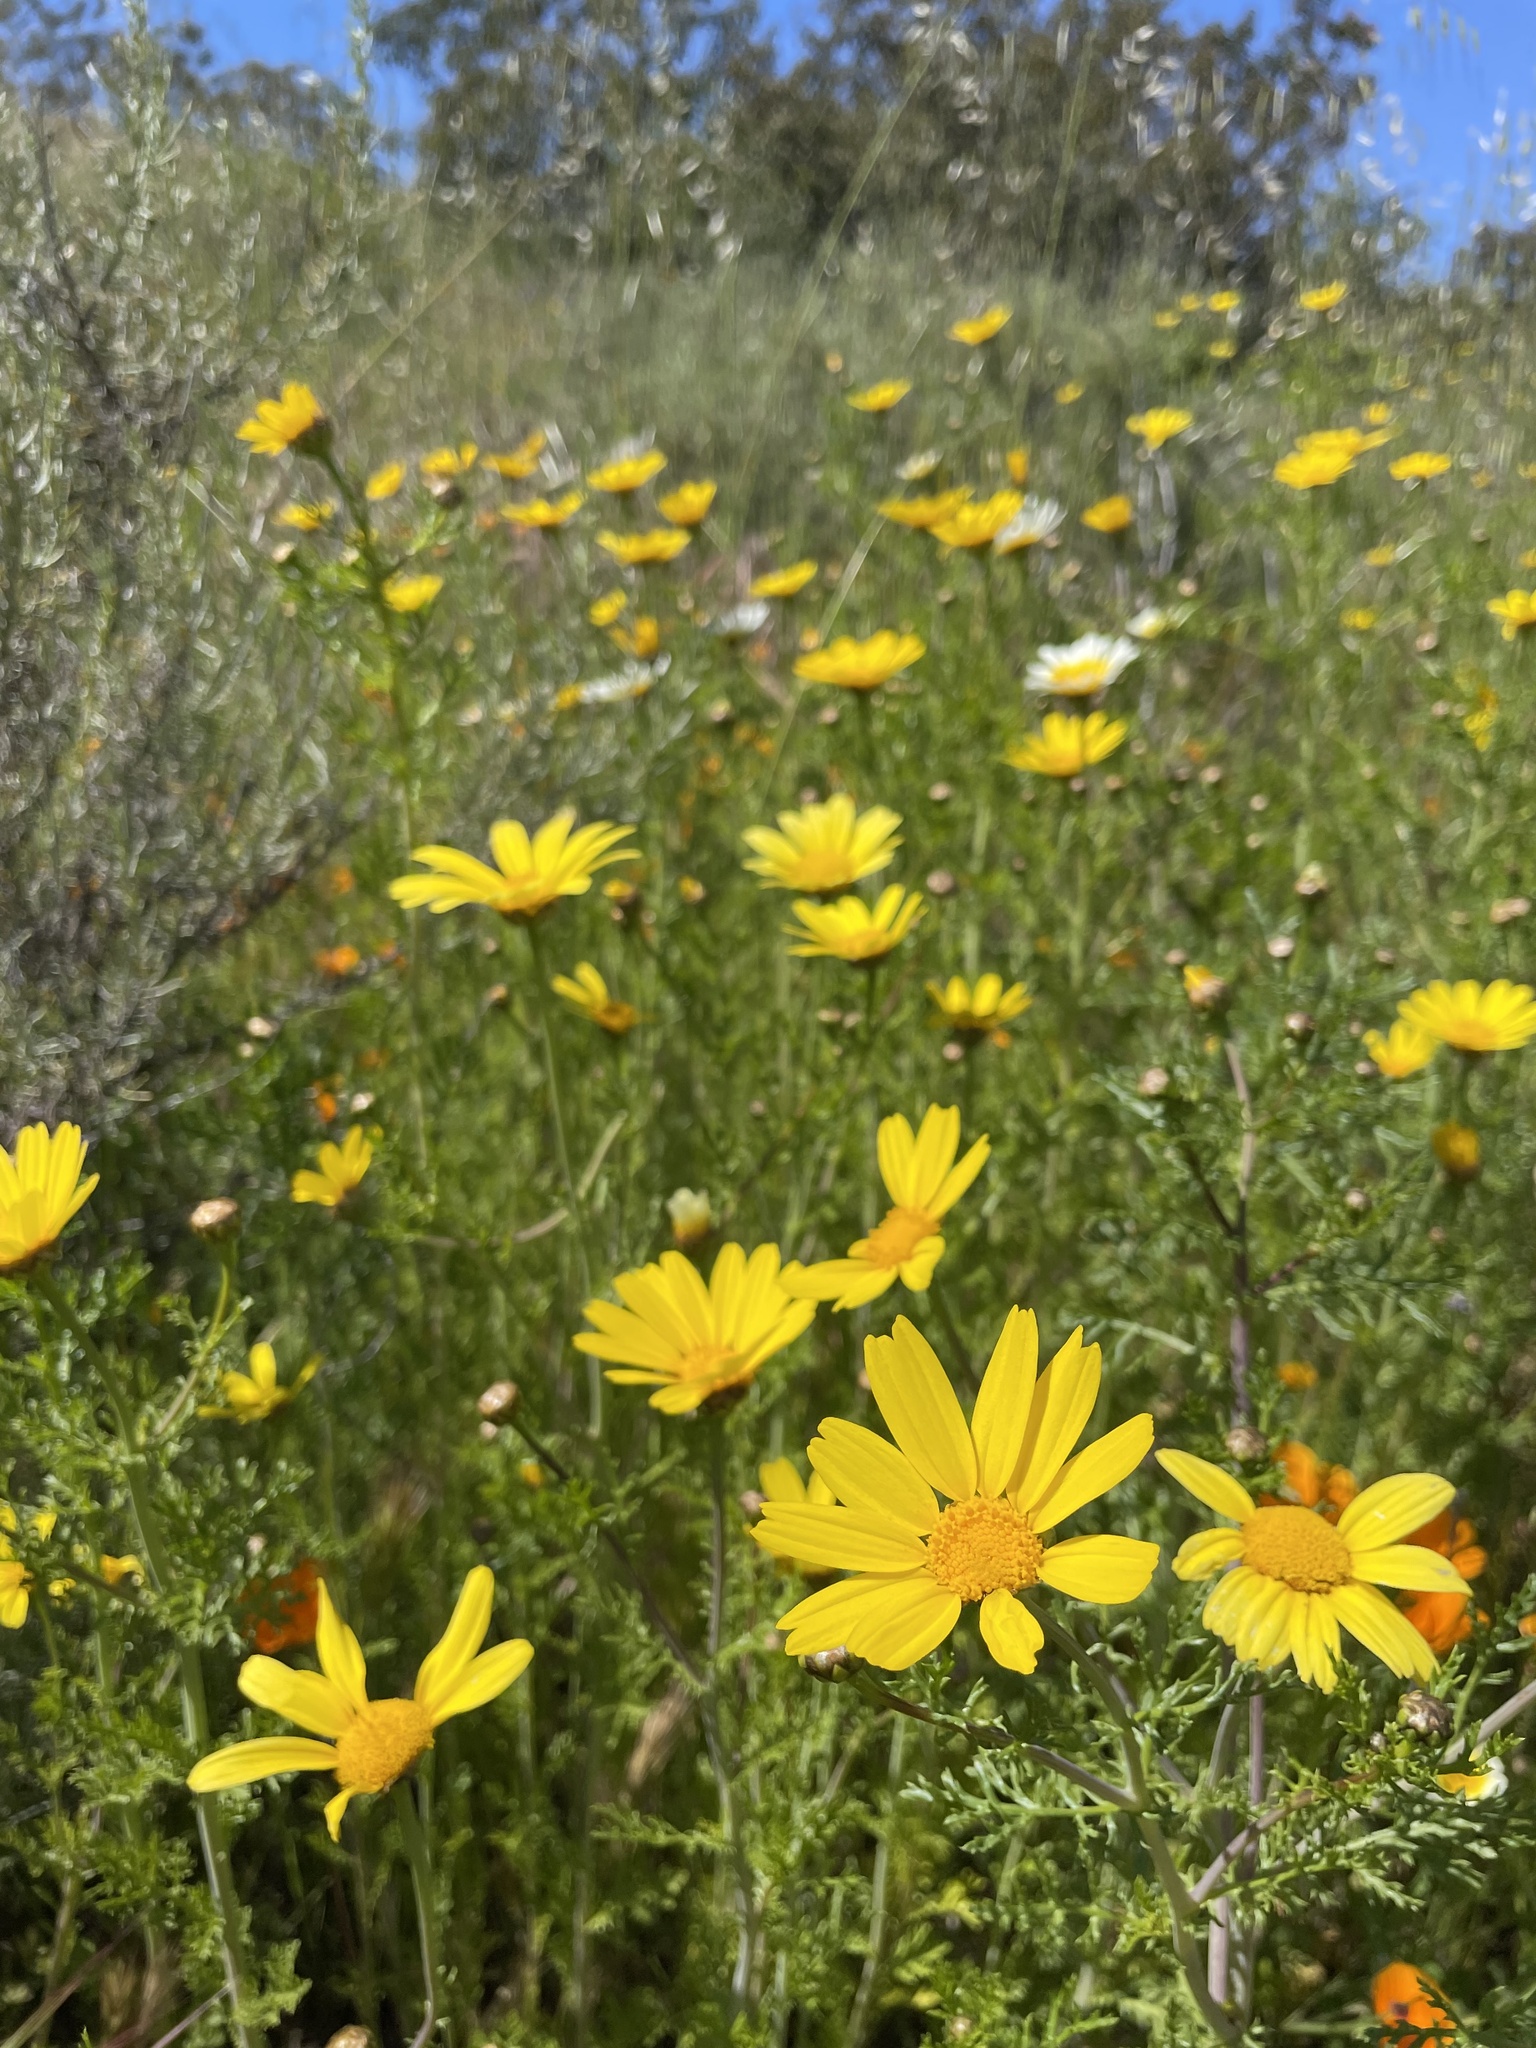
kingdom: Plantae
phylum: Tracheophyta
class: Magnoliopsida
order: Asterales
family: Asteraceae
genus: Glebionis
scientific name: Glebionis coronaria
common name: Crowndaisy
